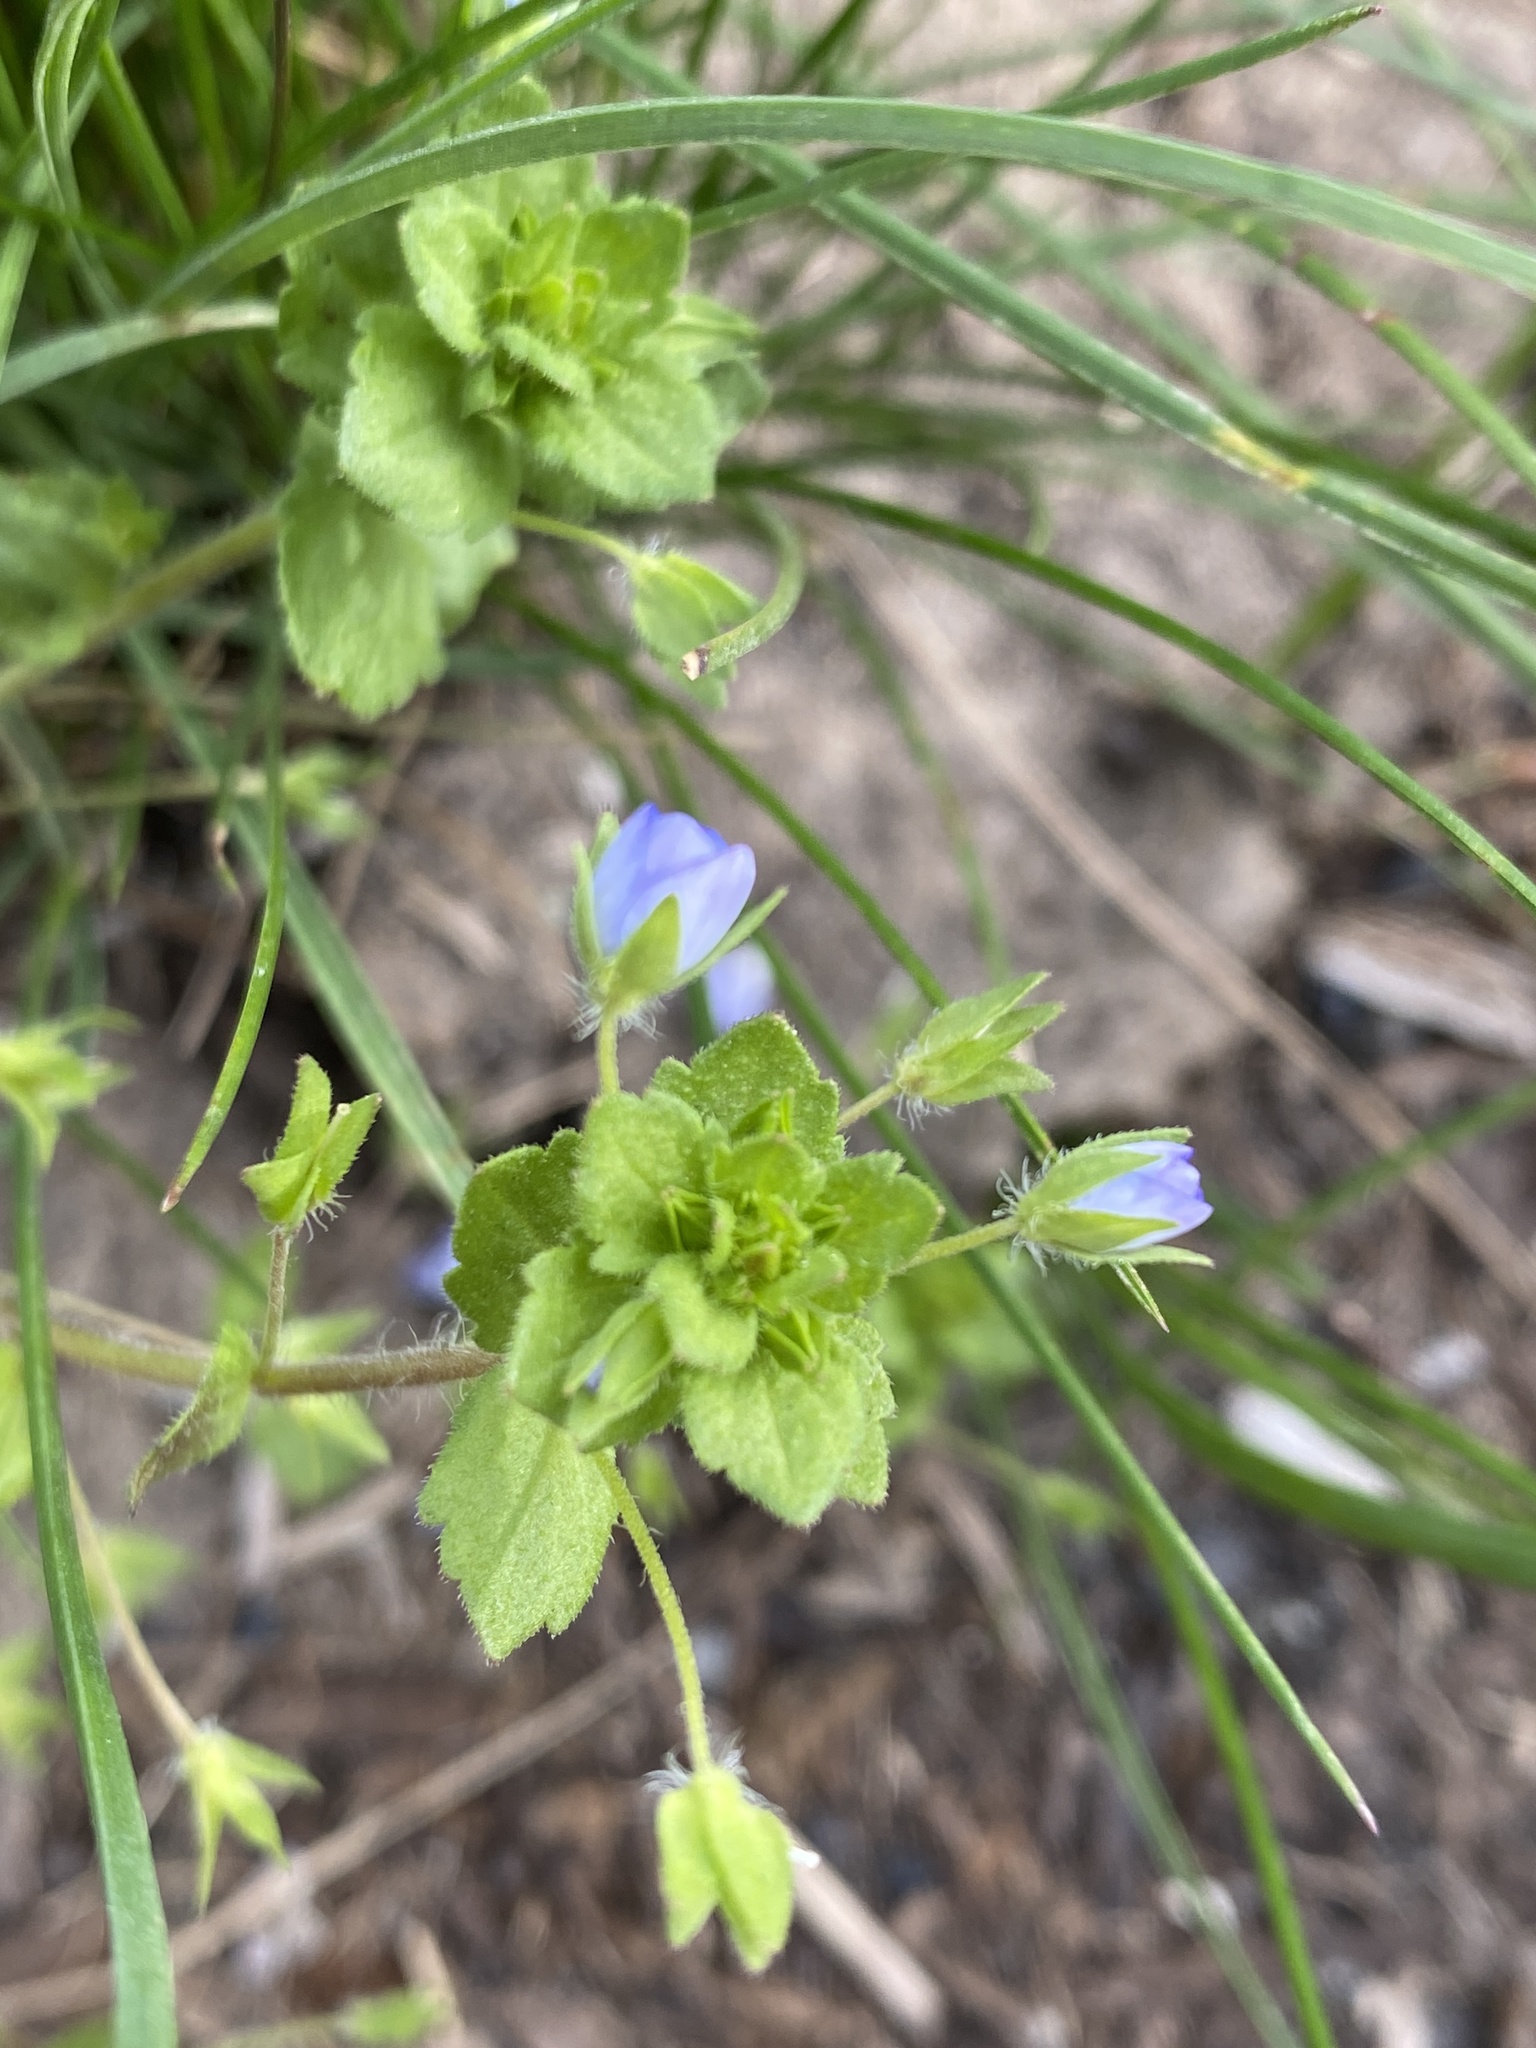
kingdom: Plantae
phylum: Tracheophyta
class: Magnoliopsida
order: Lamiales
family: Plantaginaceae
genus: Veronica
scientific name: Veronica persica
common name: Common field-speedwell
